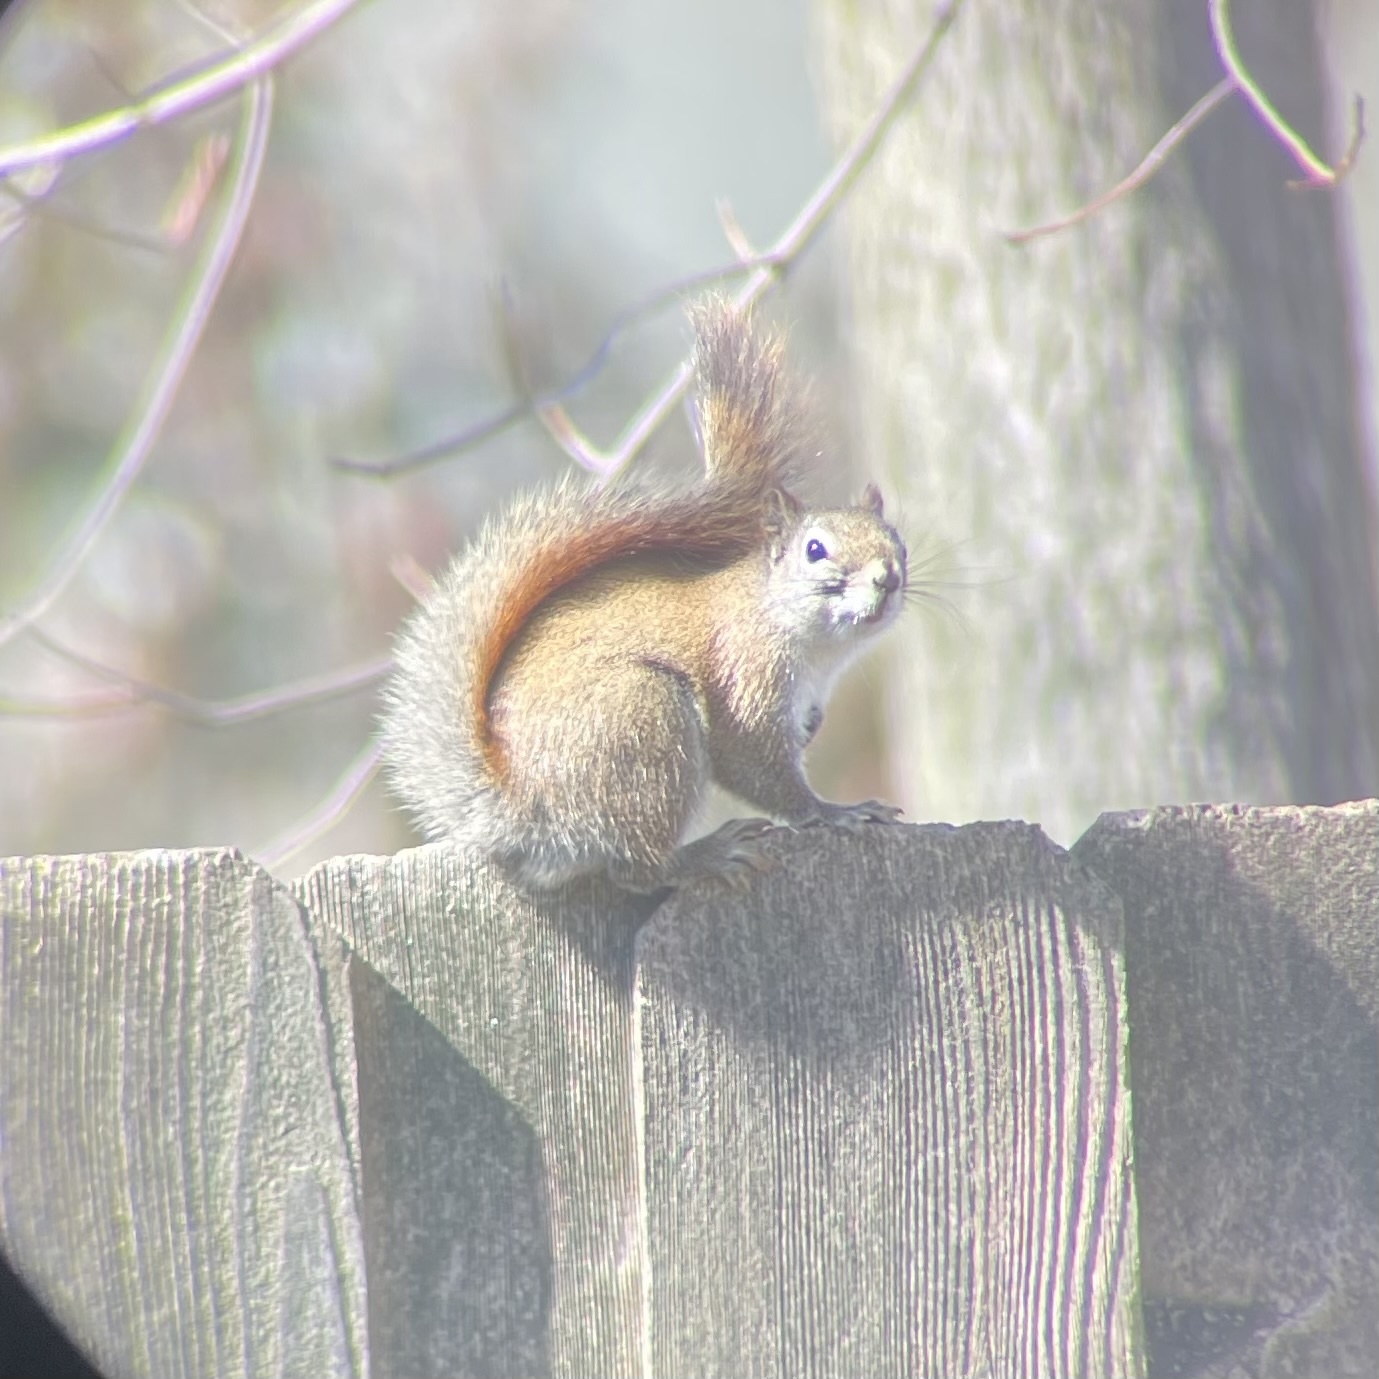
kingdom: Animalia
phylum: Chordata
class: Mammalia
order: Rodentia
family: Sciuridae
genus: Tamiasciurus
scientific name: Tamiasciurus hudsonicus
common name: Red squirrel
